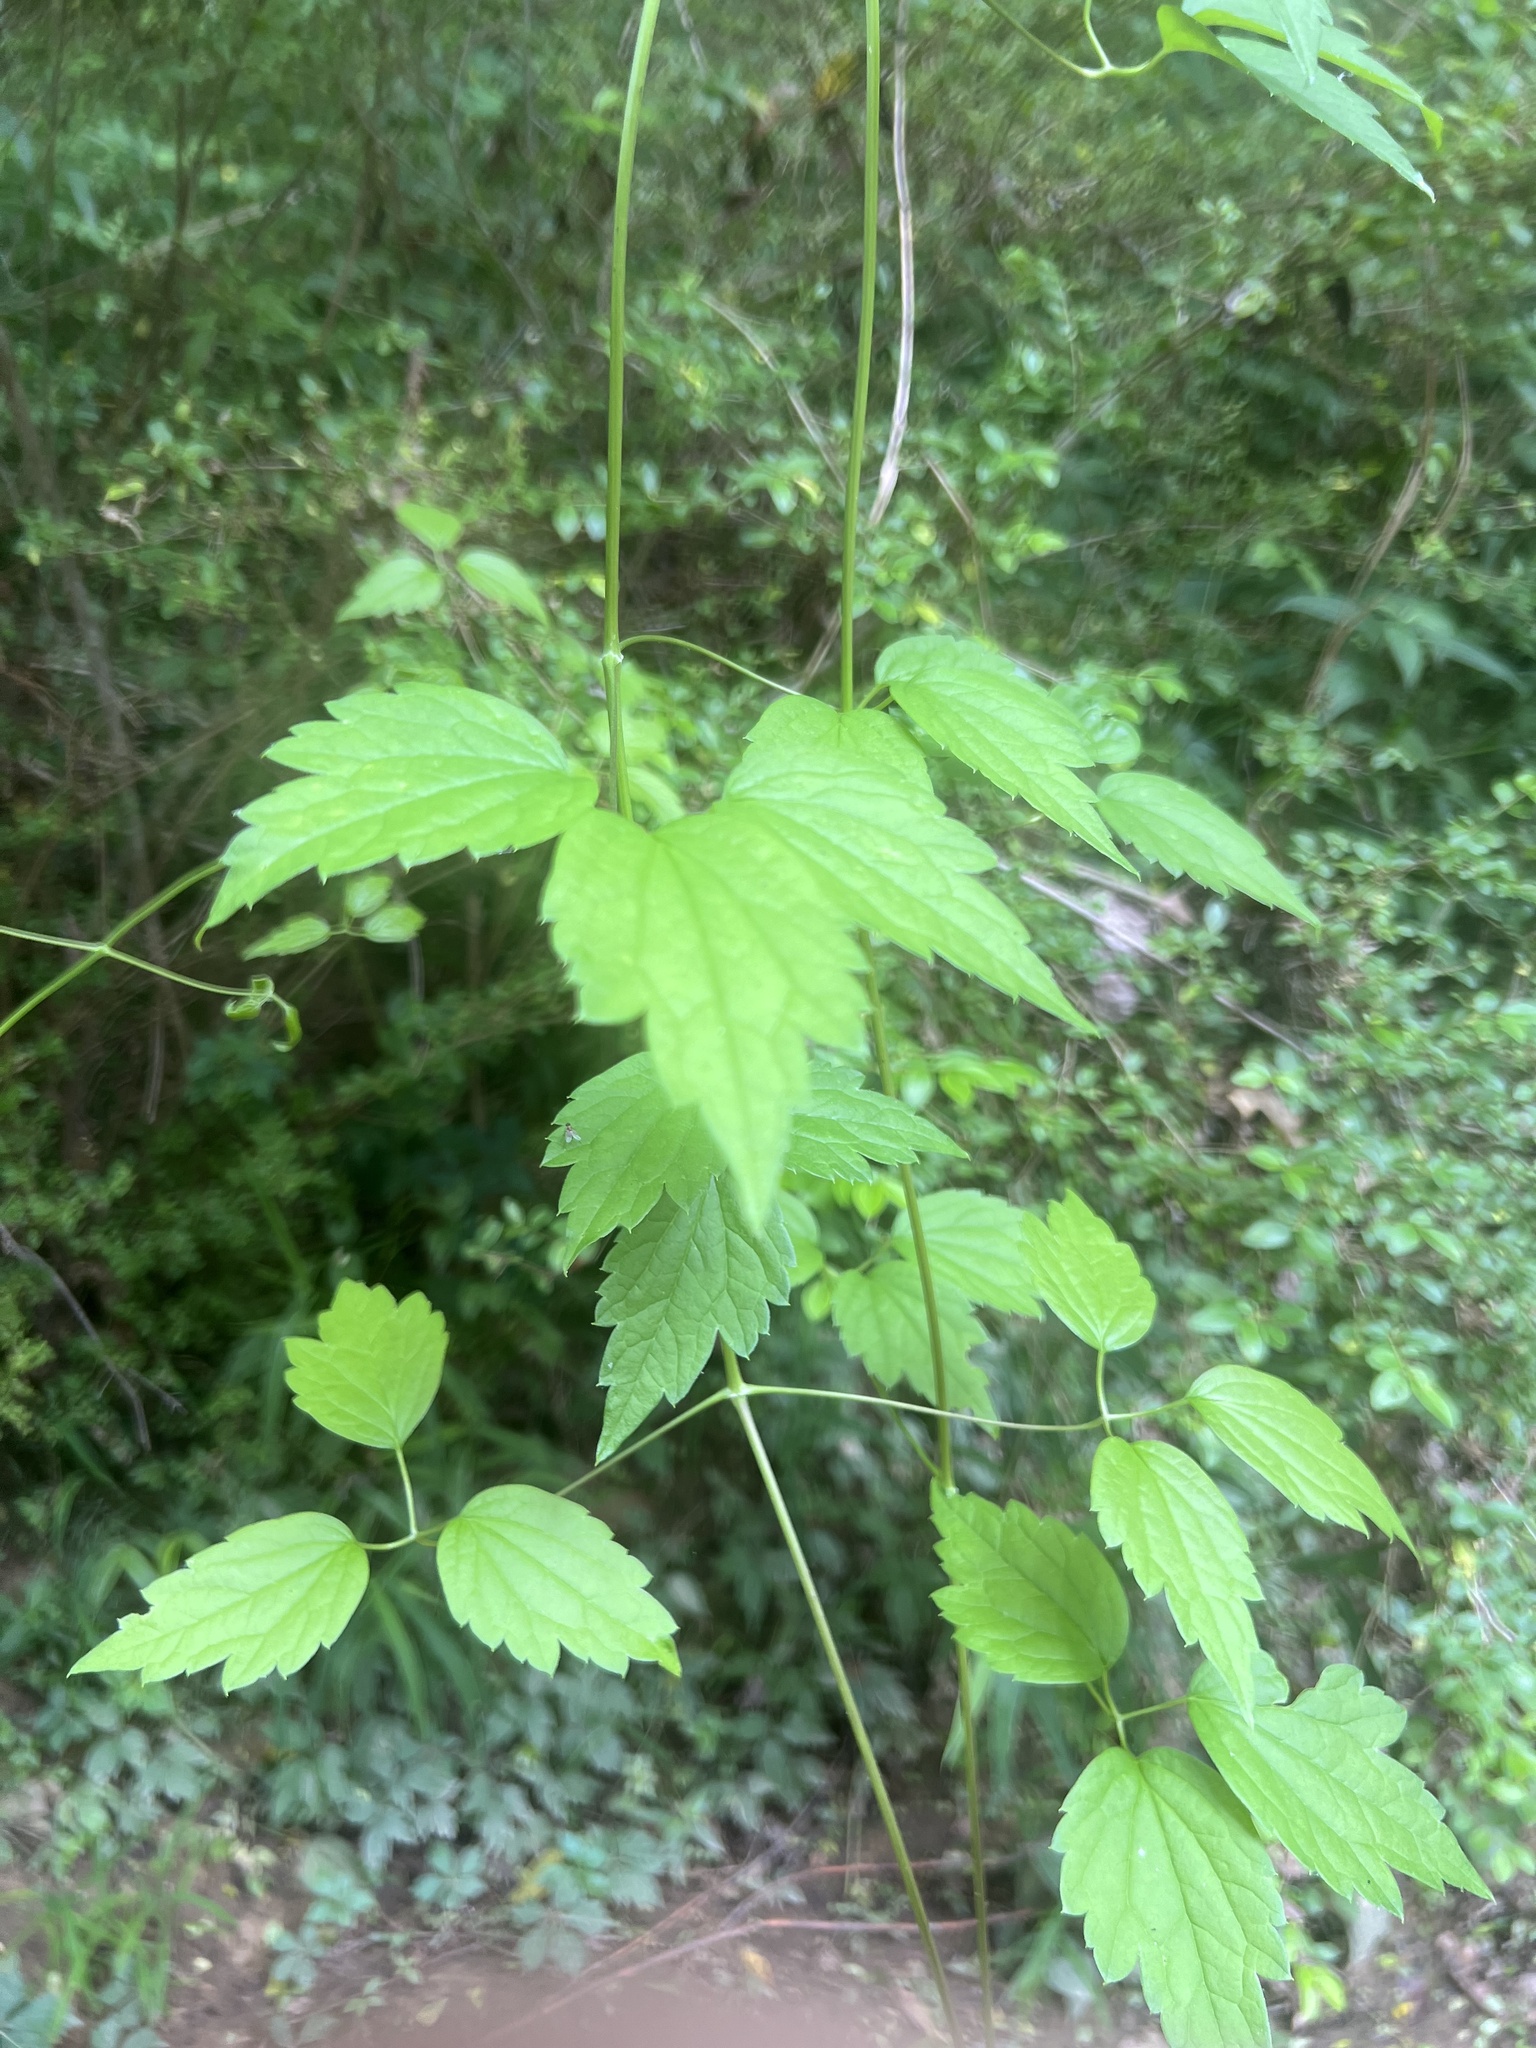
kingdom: Plantae
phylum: Tracheophyta
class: Magnoliopsida
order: Ranunculales
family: Ranunculaceae
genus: Clematis
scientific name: Clematis virginiana
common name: Virgin's-bower
